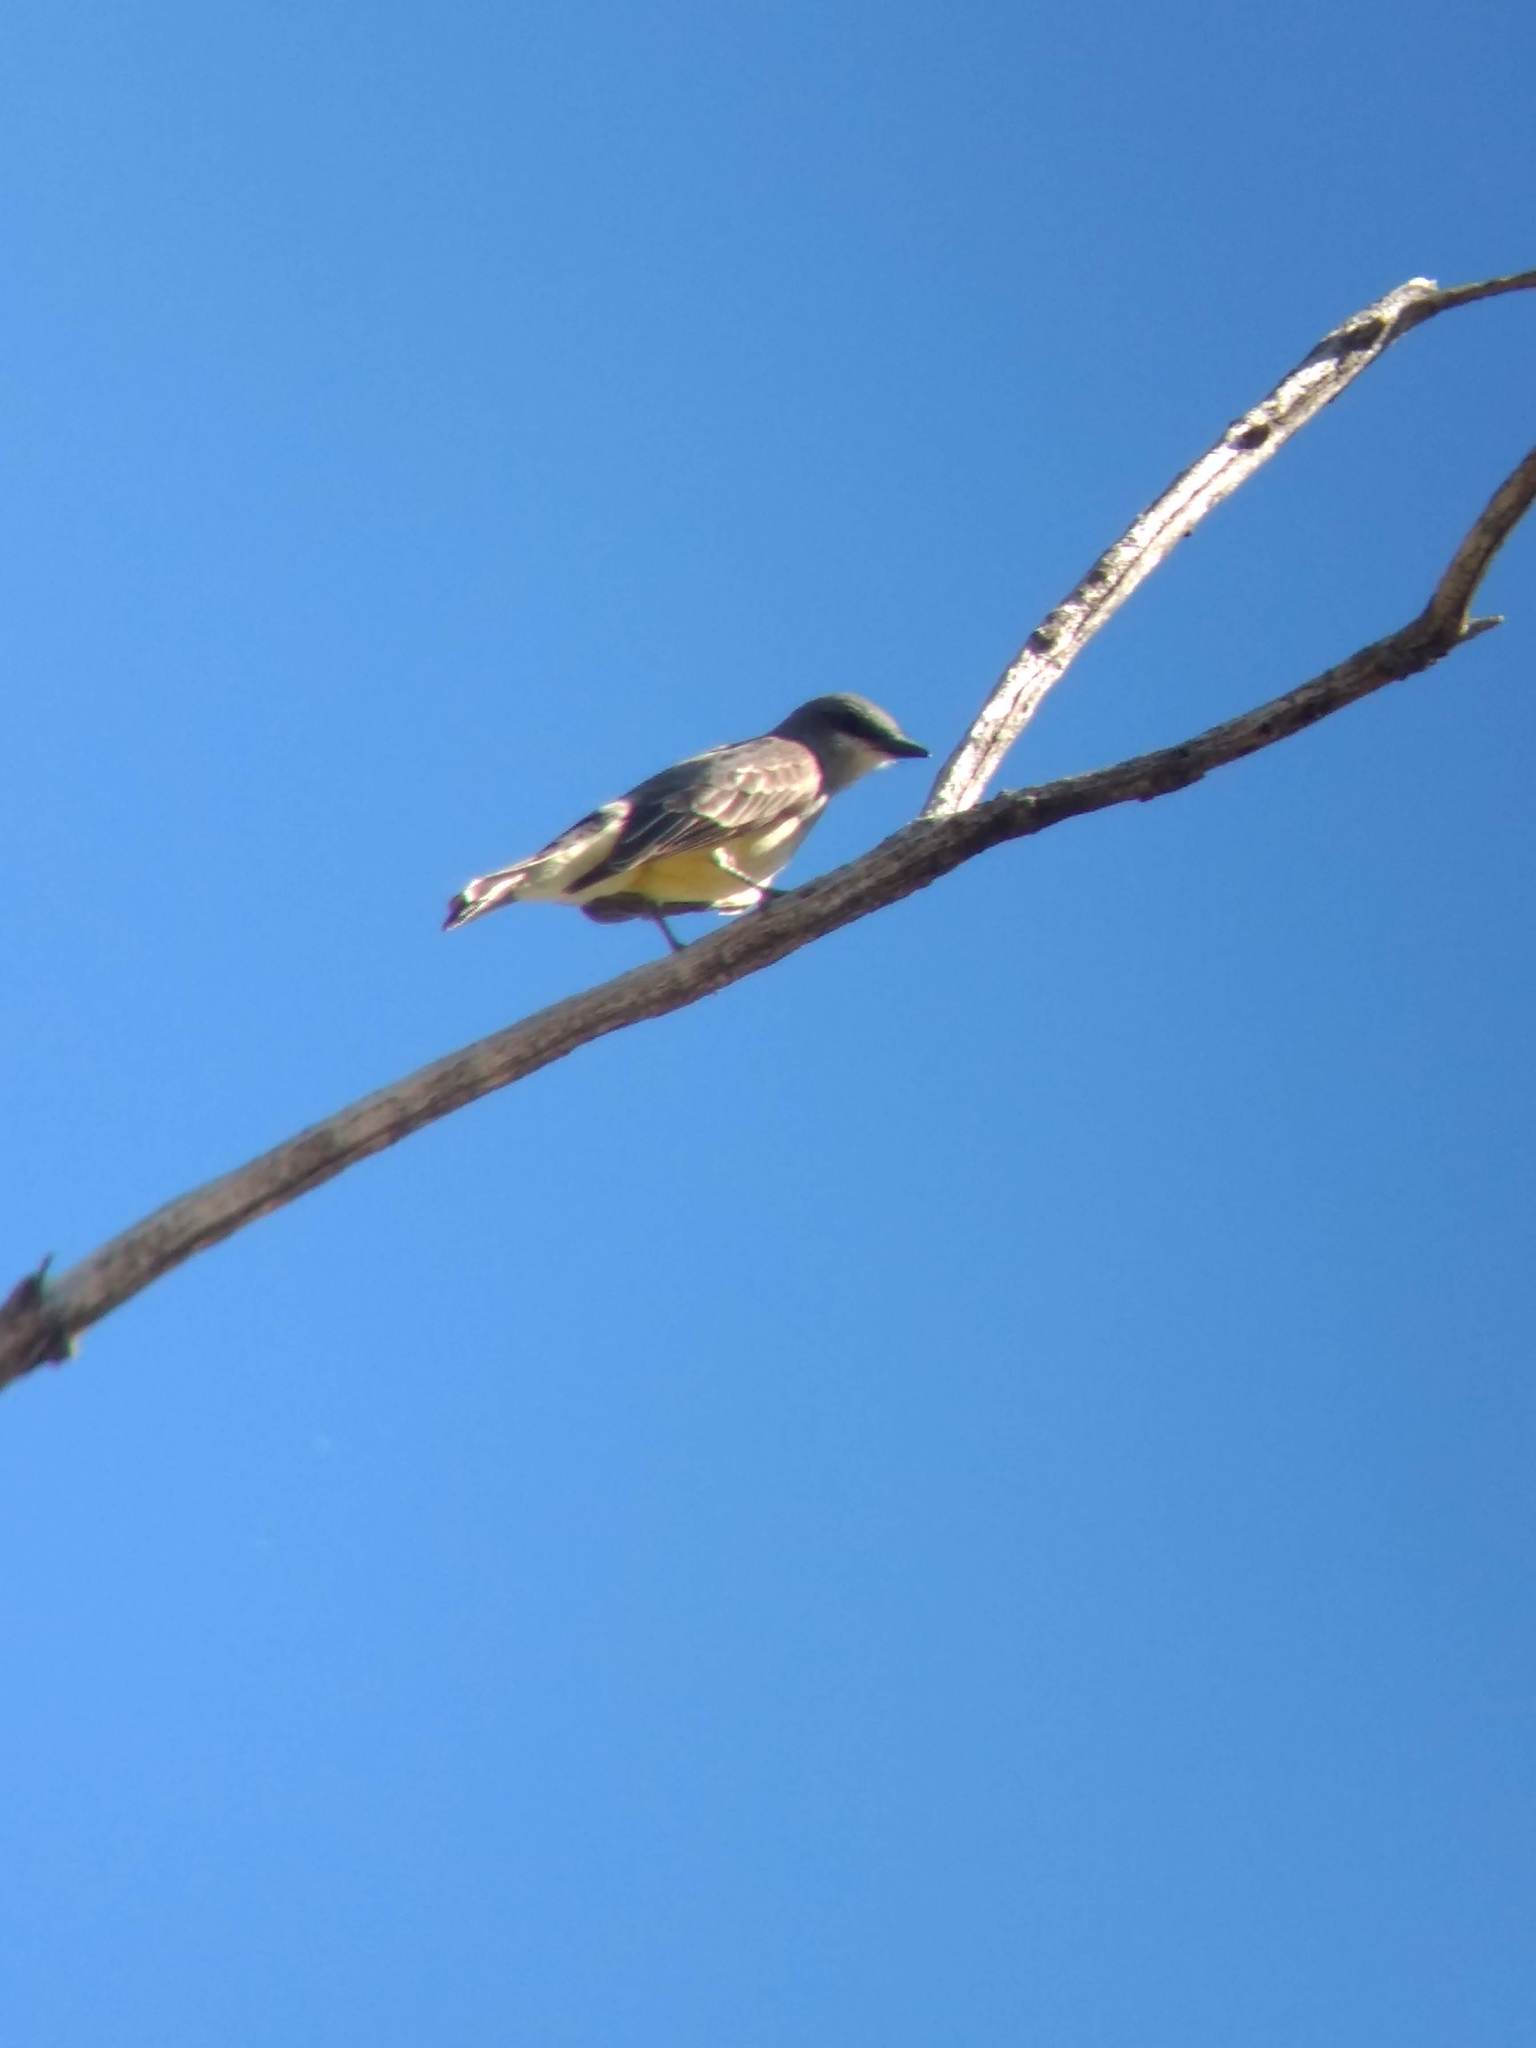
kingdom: Animalia
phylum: Chordata
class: Aves
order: Passeriformes
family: Tyrannidae
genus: Tyrannus
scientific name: Tyrannus vociferans
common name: Cassin's kingbird
